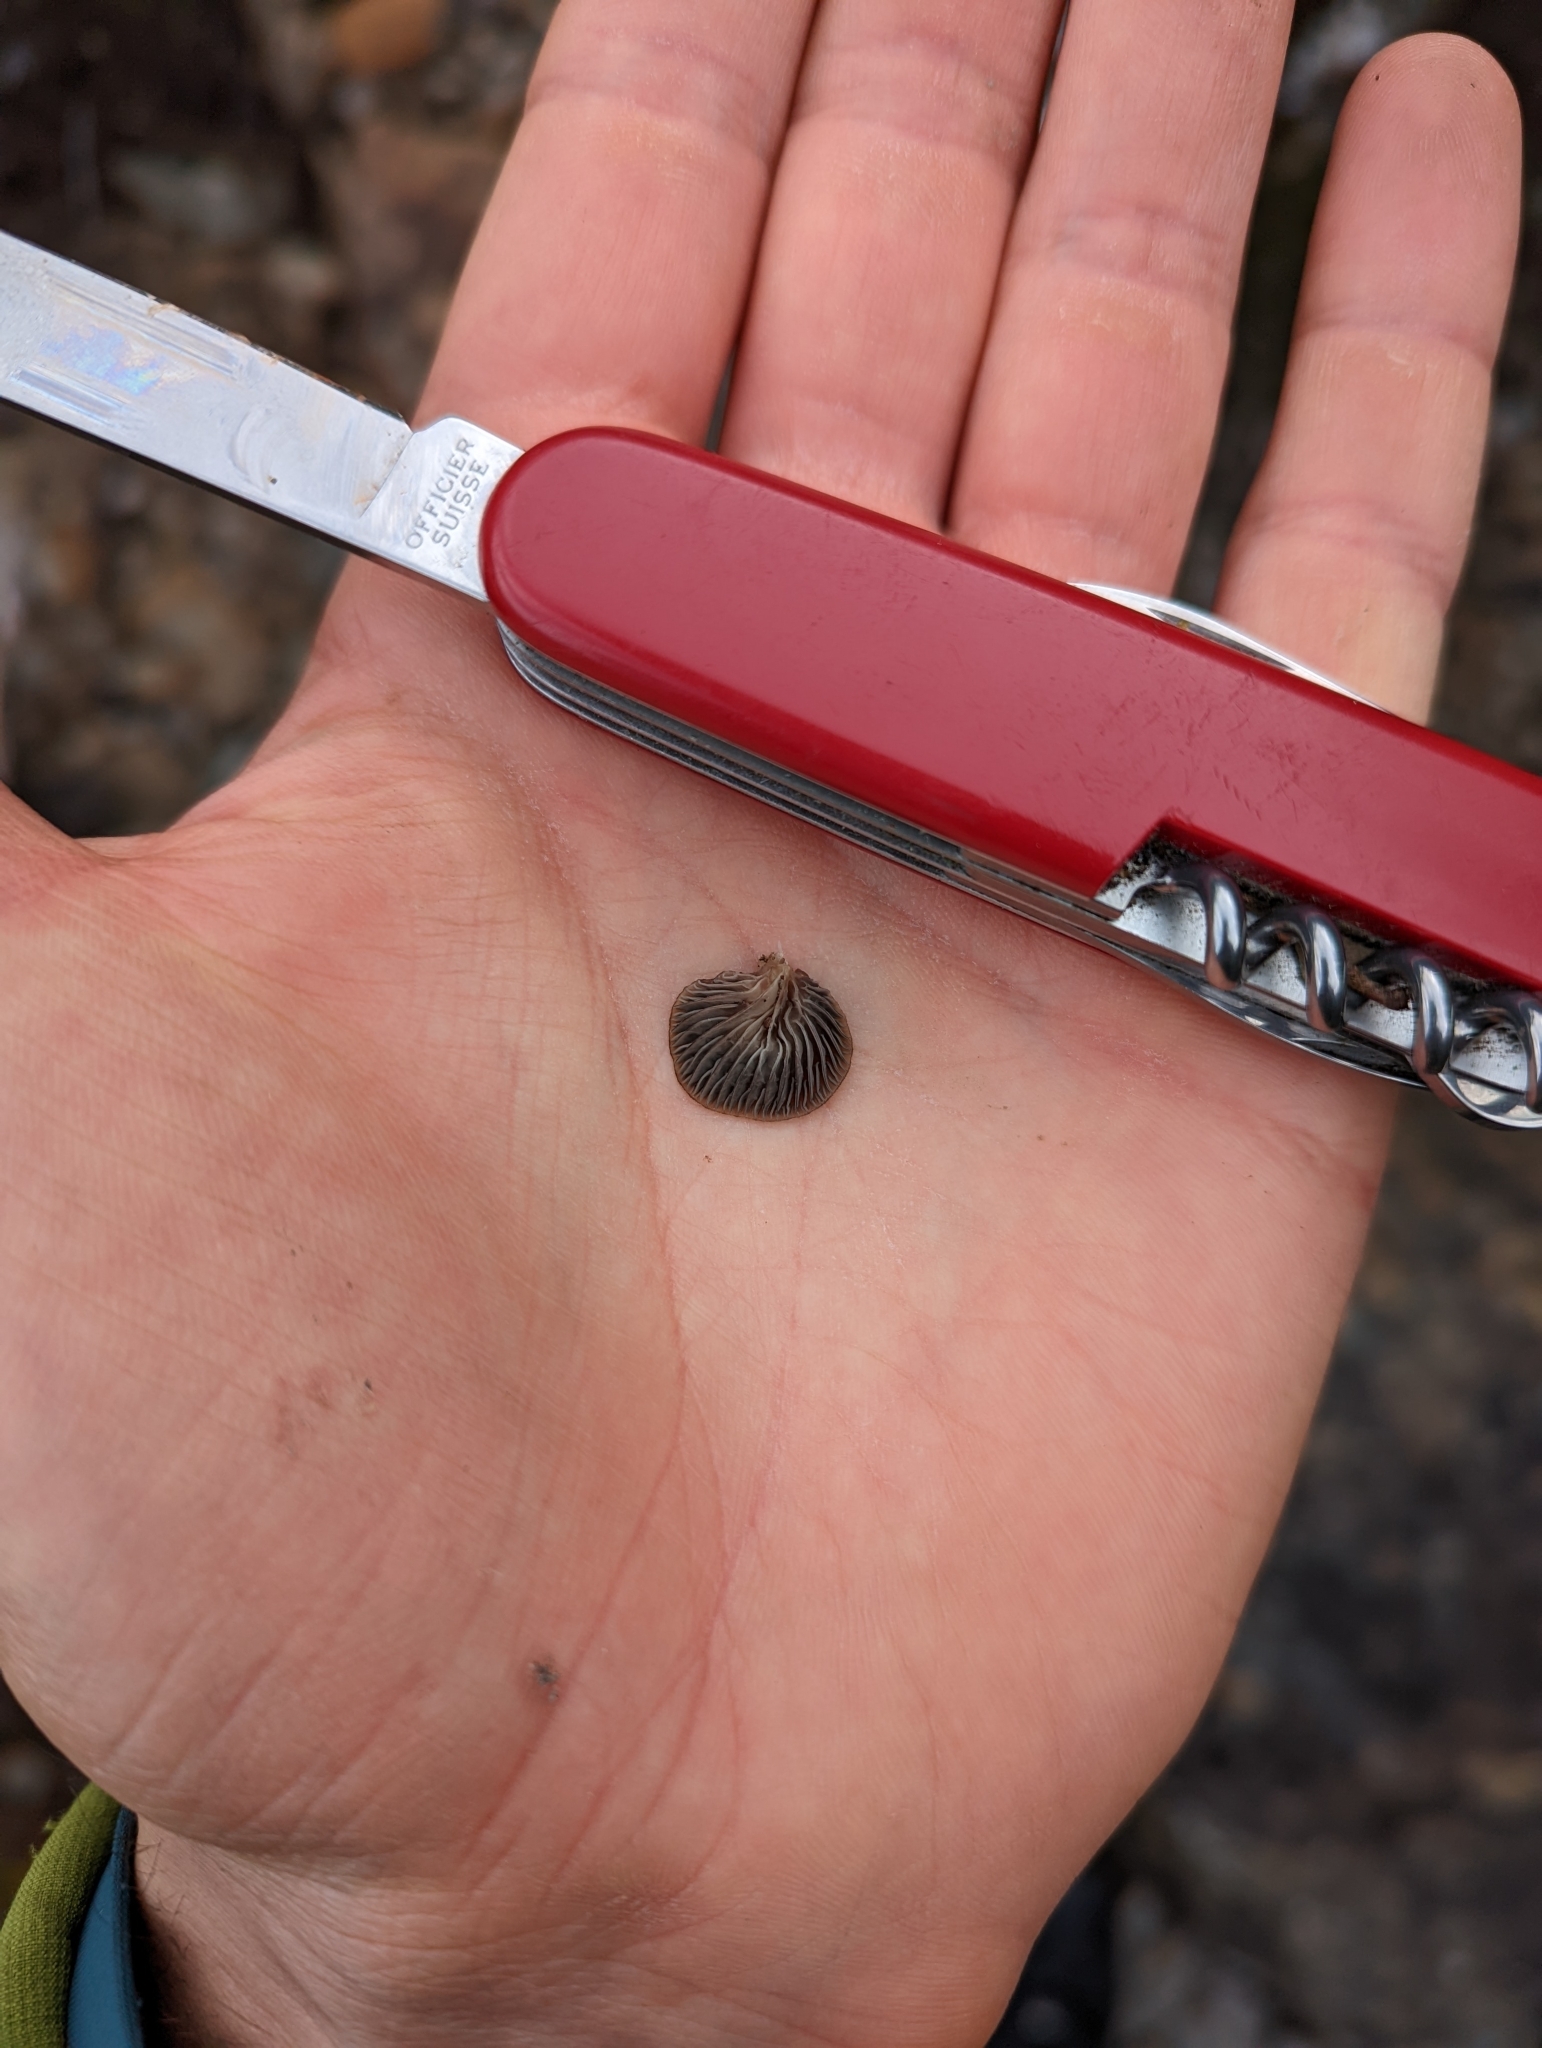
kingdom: Fungi
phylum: Basidiomycota
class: Agaricomycetes
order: Agaricales
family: Mycenaceae
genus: Panellus
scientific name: Panellus longinquus
